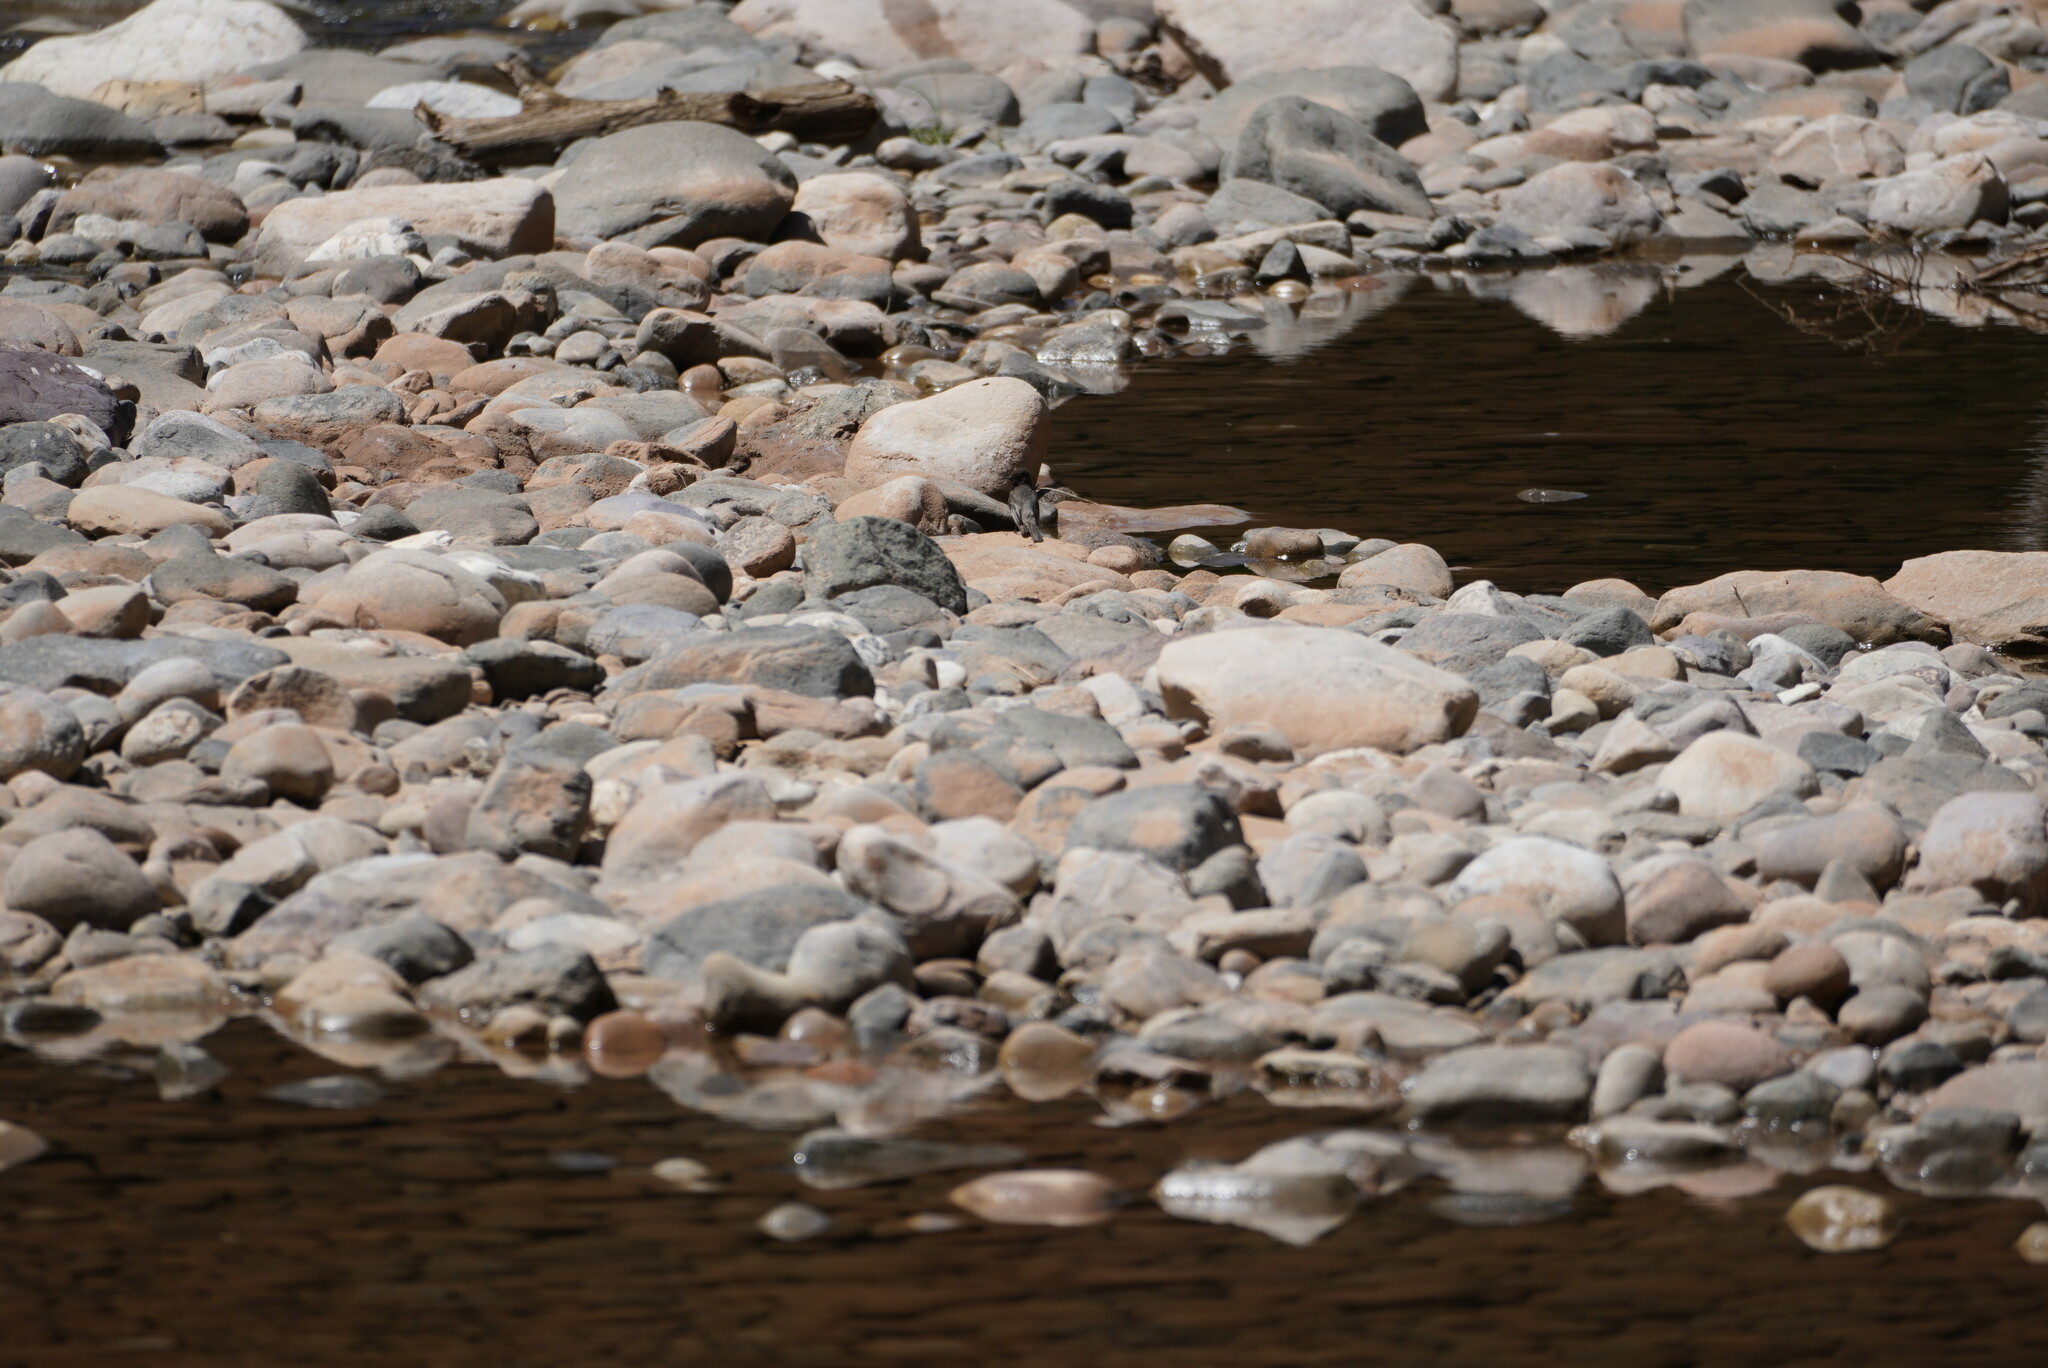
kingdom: Animalia
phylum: Chordata
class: Aves
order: Passeriformes
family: Tyrannidae
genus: Sayornis
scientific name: Sayornis nigricans
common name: Black phoebe
